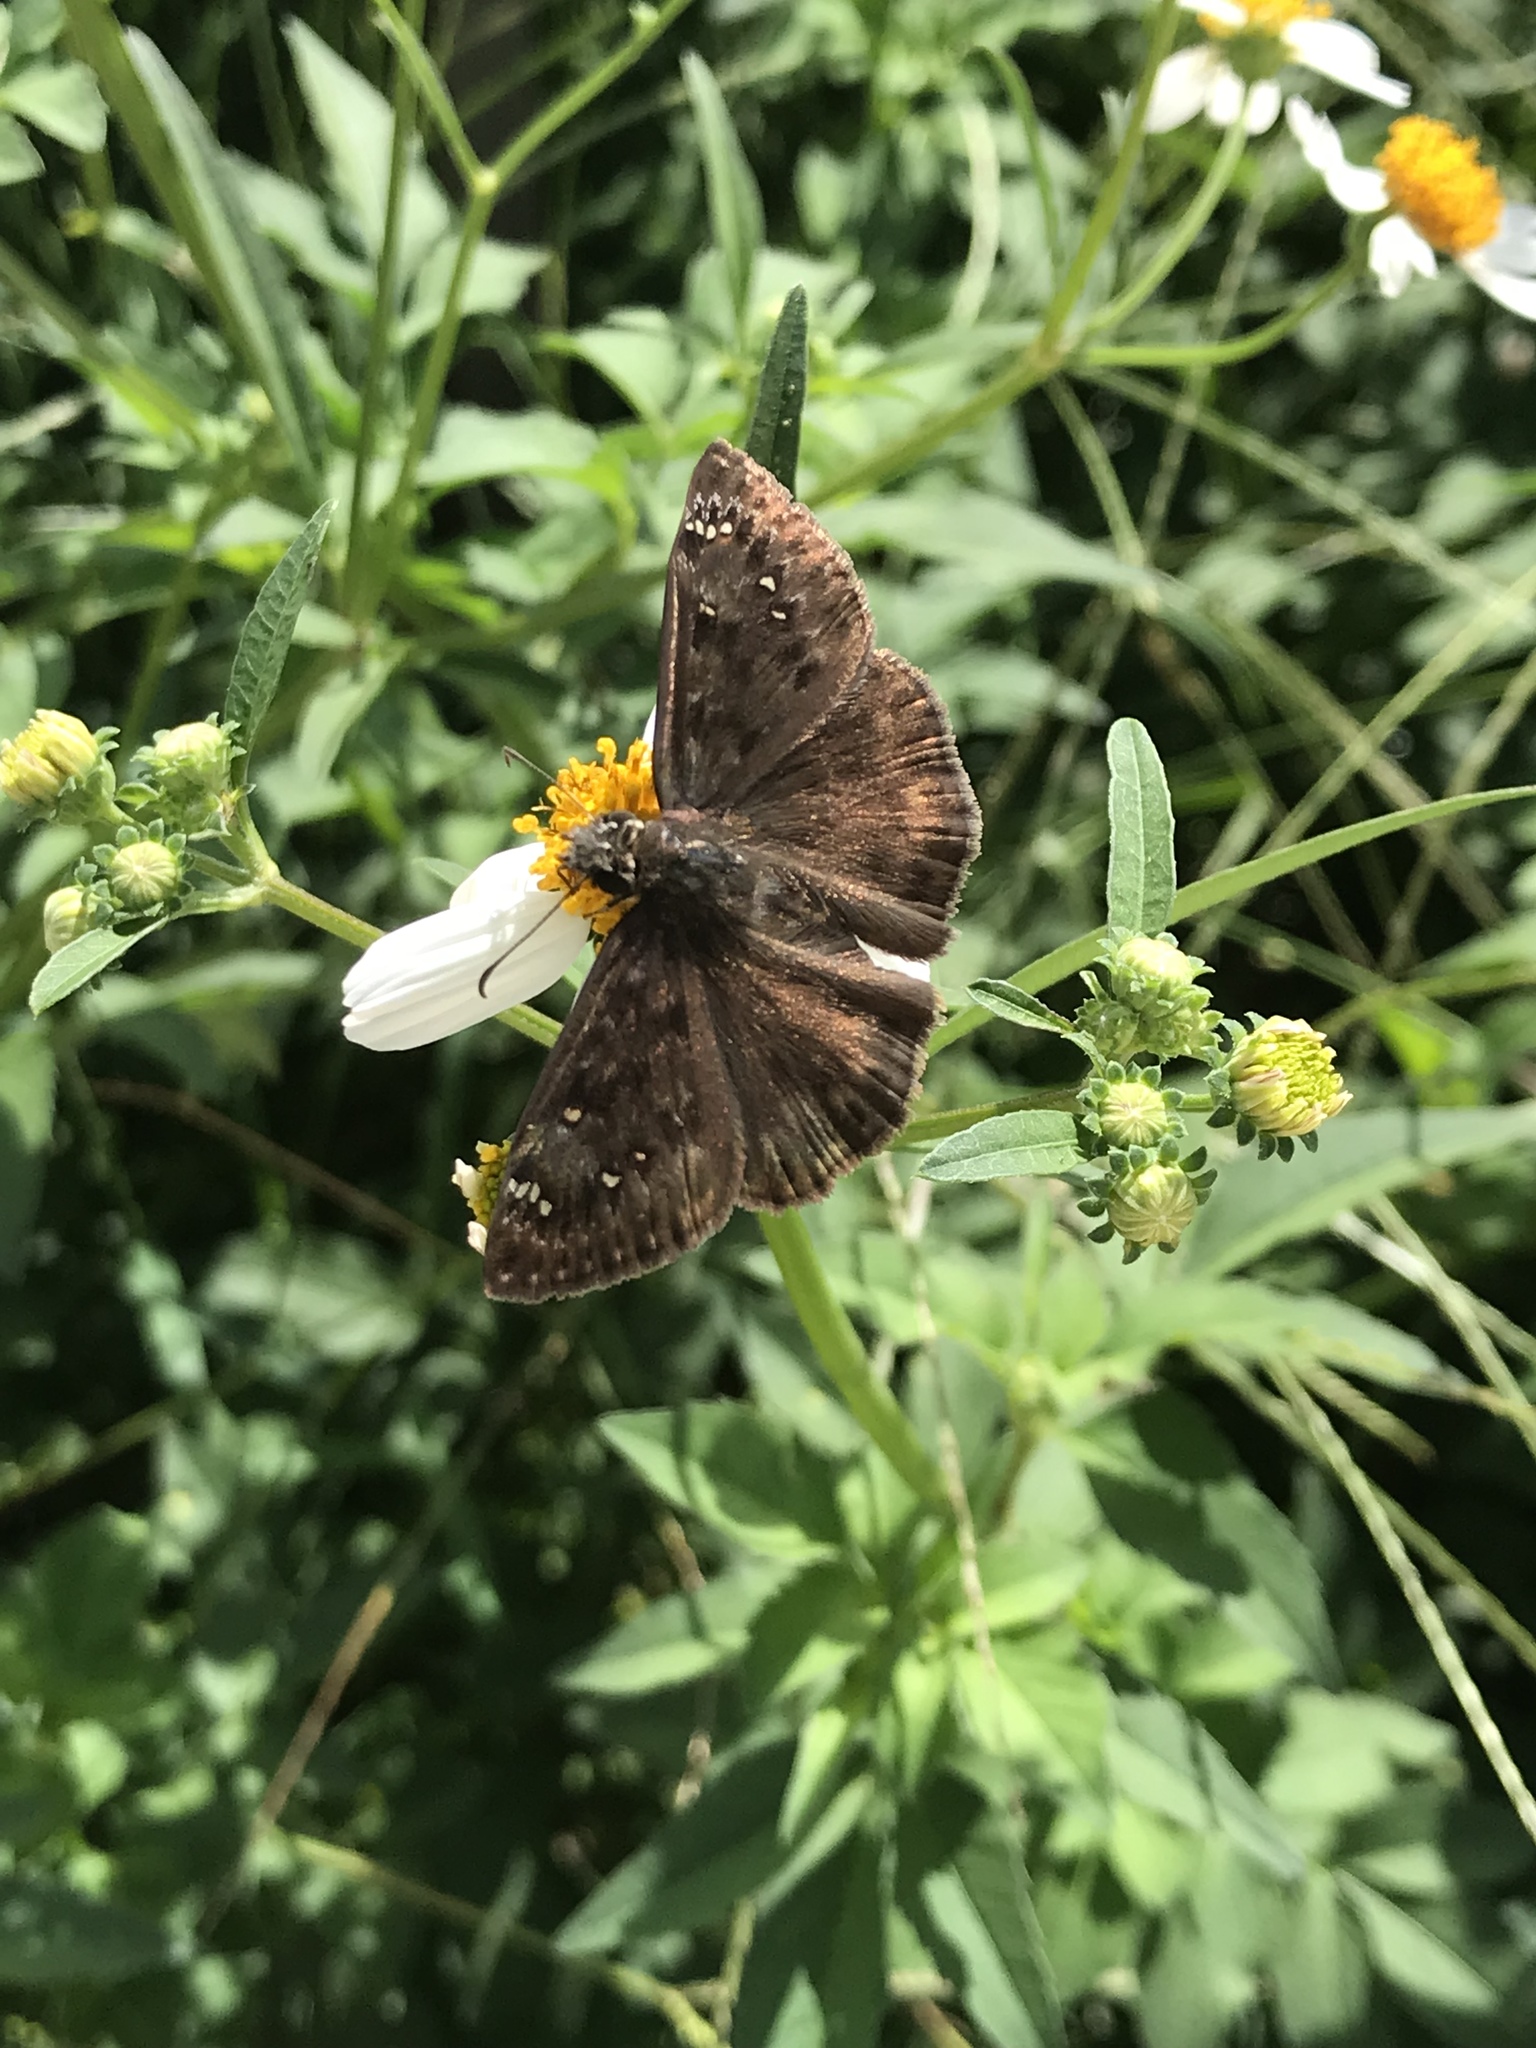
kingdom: Animalia
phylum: Arthropoda
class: Insecta
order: Lepidoptera
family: Hesperiidae
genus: Erynnis
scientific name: Erynnis horatius
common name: Horace's duskywing
